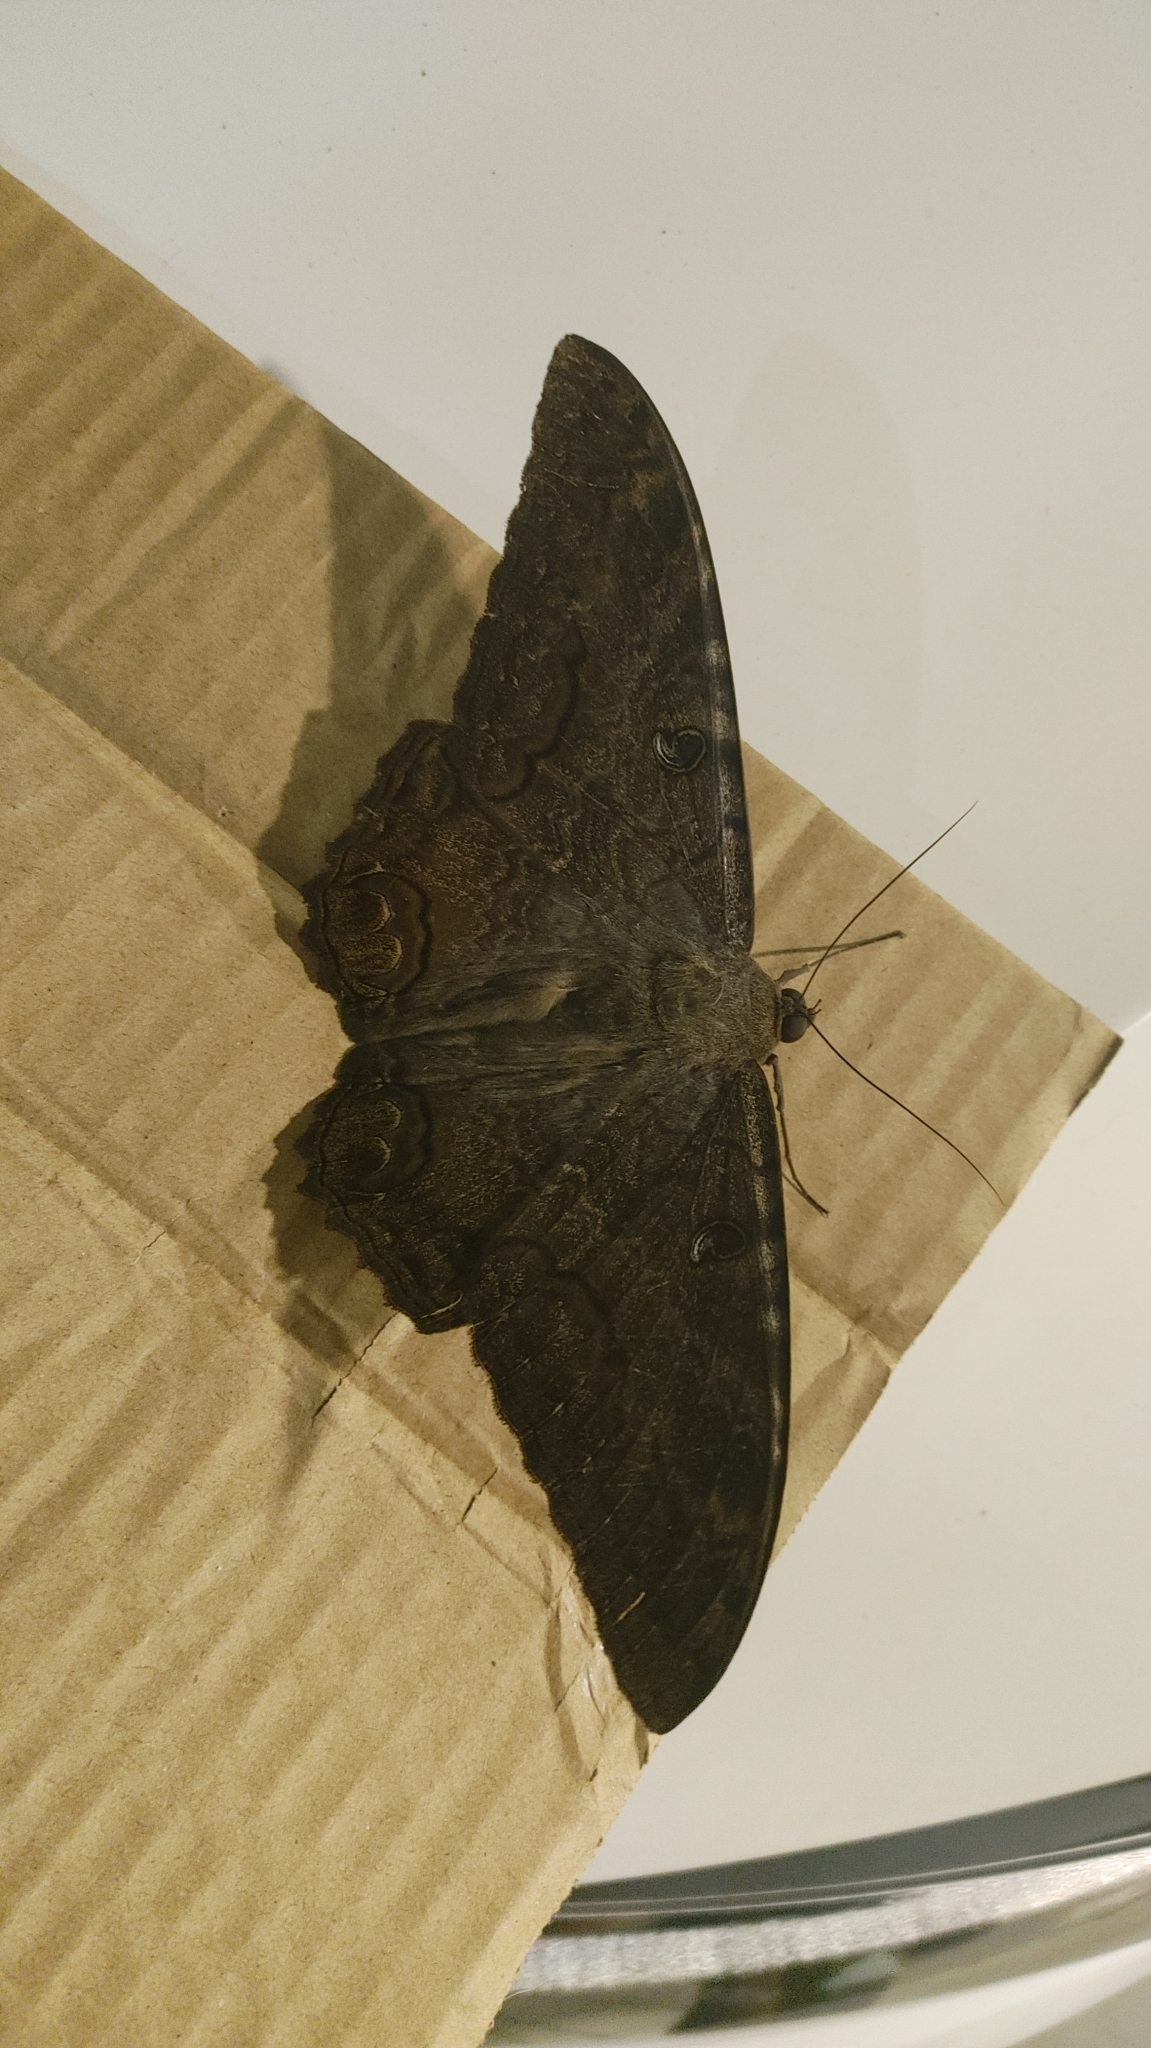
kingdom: Animalia
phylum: Arthropoda
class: Insecta
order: Lepidoptera
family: Erebidae
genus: Ascalapha
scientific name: Ascalapha odorata
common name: Black witch
